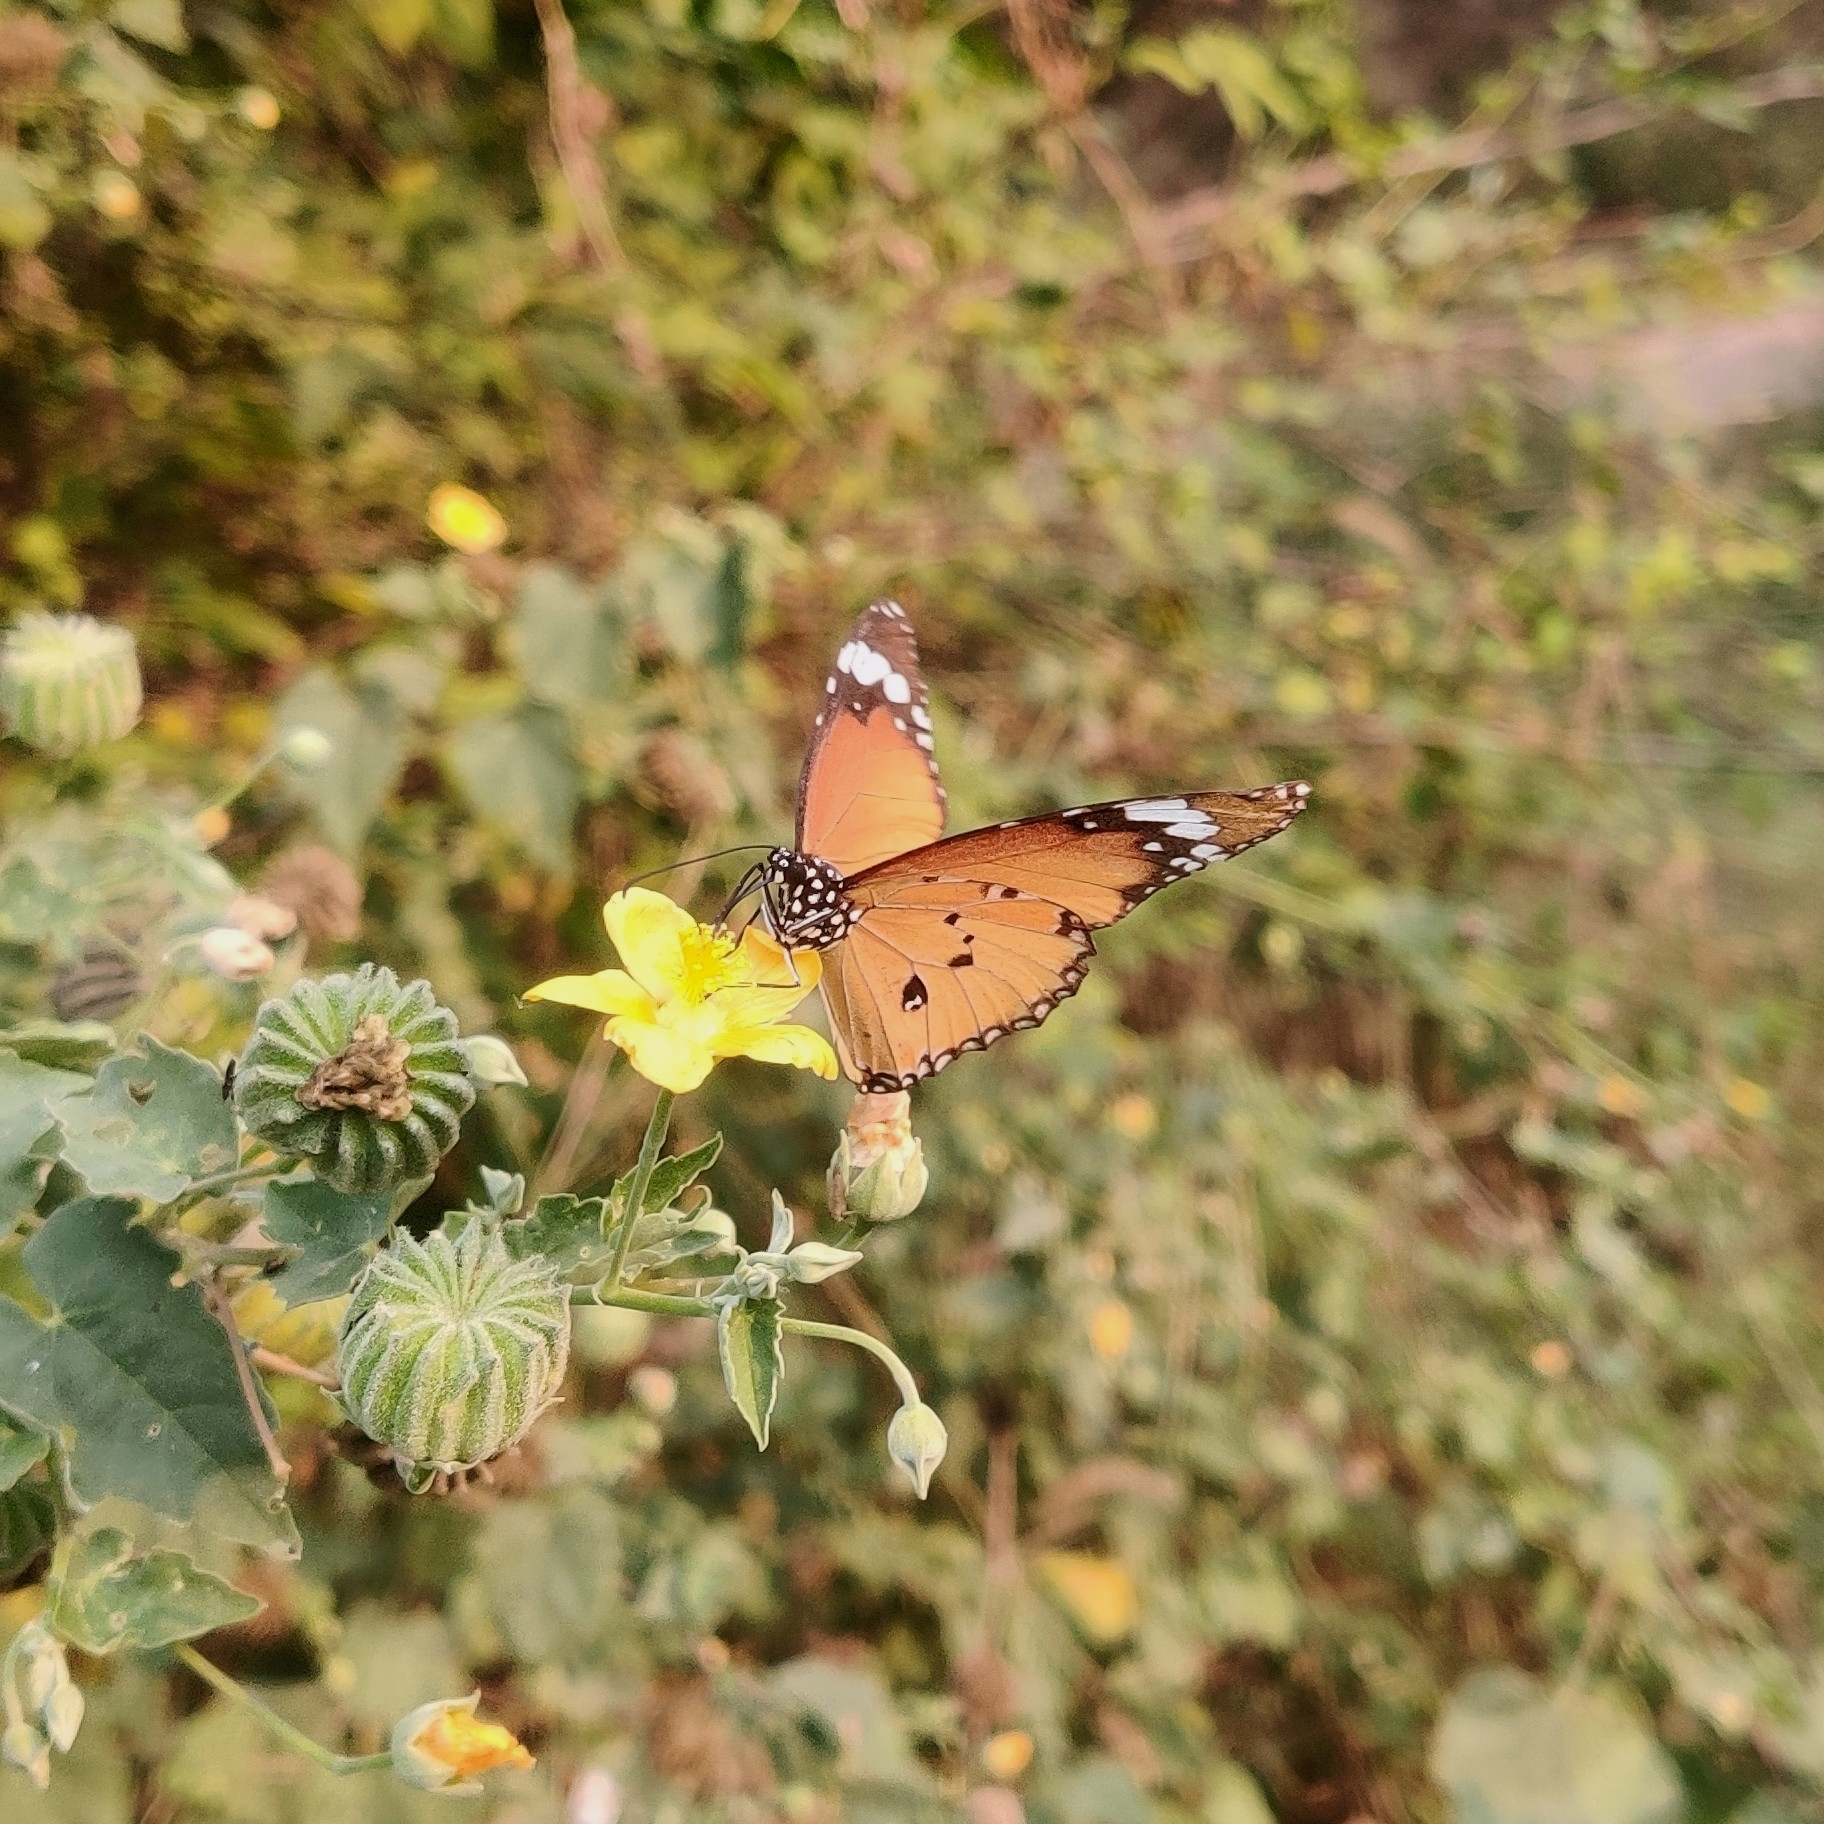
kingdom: Animalia
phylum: Arthropoda
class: Insecta
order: Lepidoptera
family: Nymphalidae
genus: Danaus
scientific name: Danaus chrysippus
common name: Plain tiger
